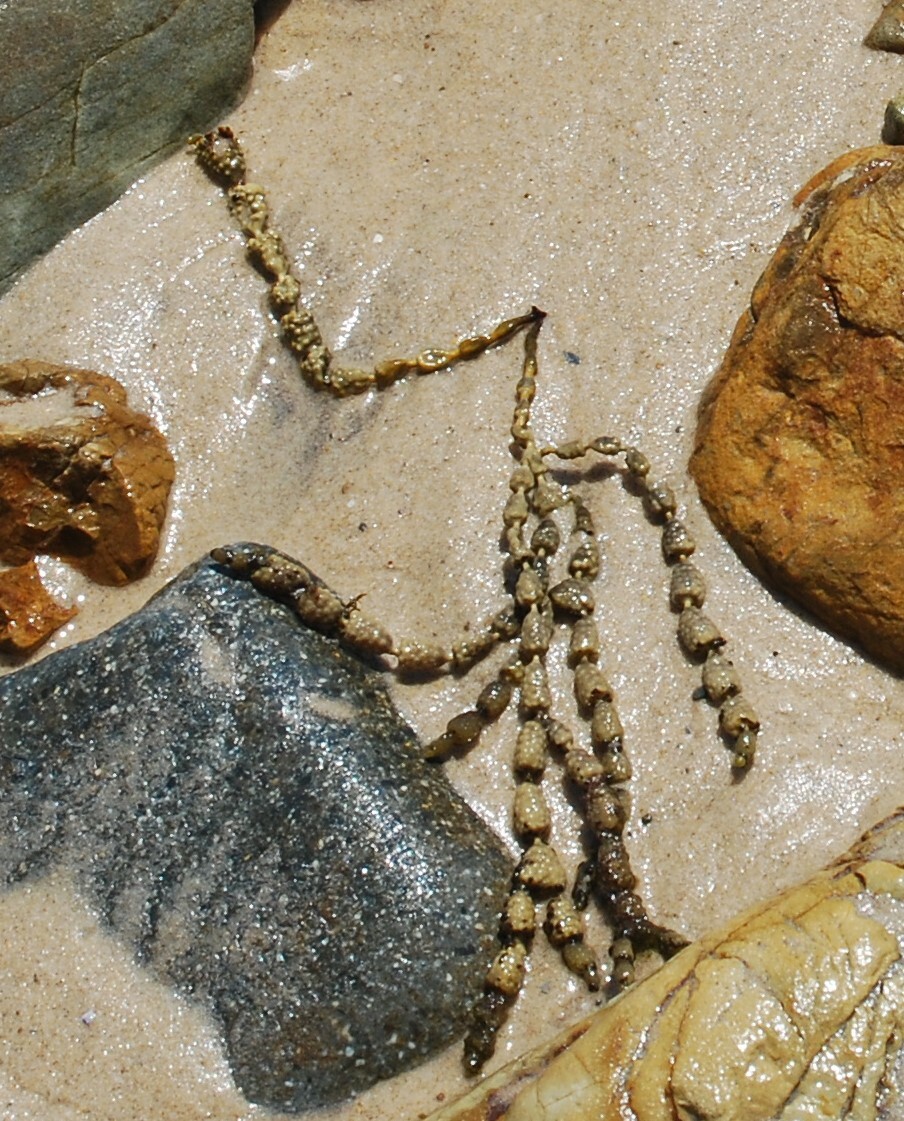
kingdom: Chromista
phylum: Ochrophyta
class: Phaeophyceae
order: Fucales
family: Hormosiraceae
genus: Hormosira
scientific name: Hormosira banksii
